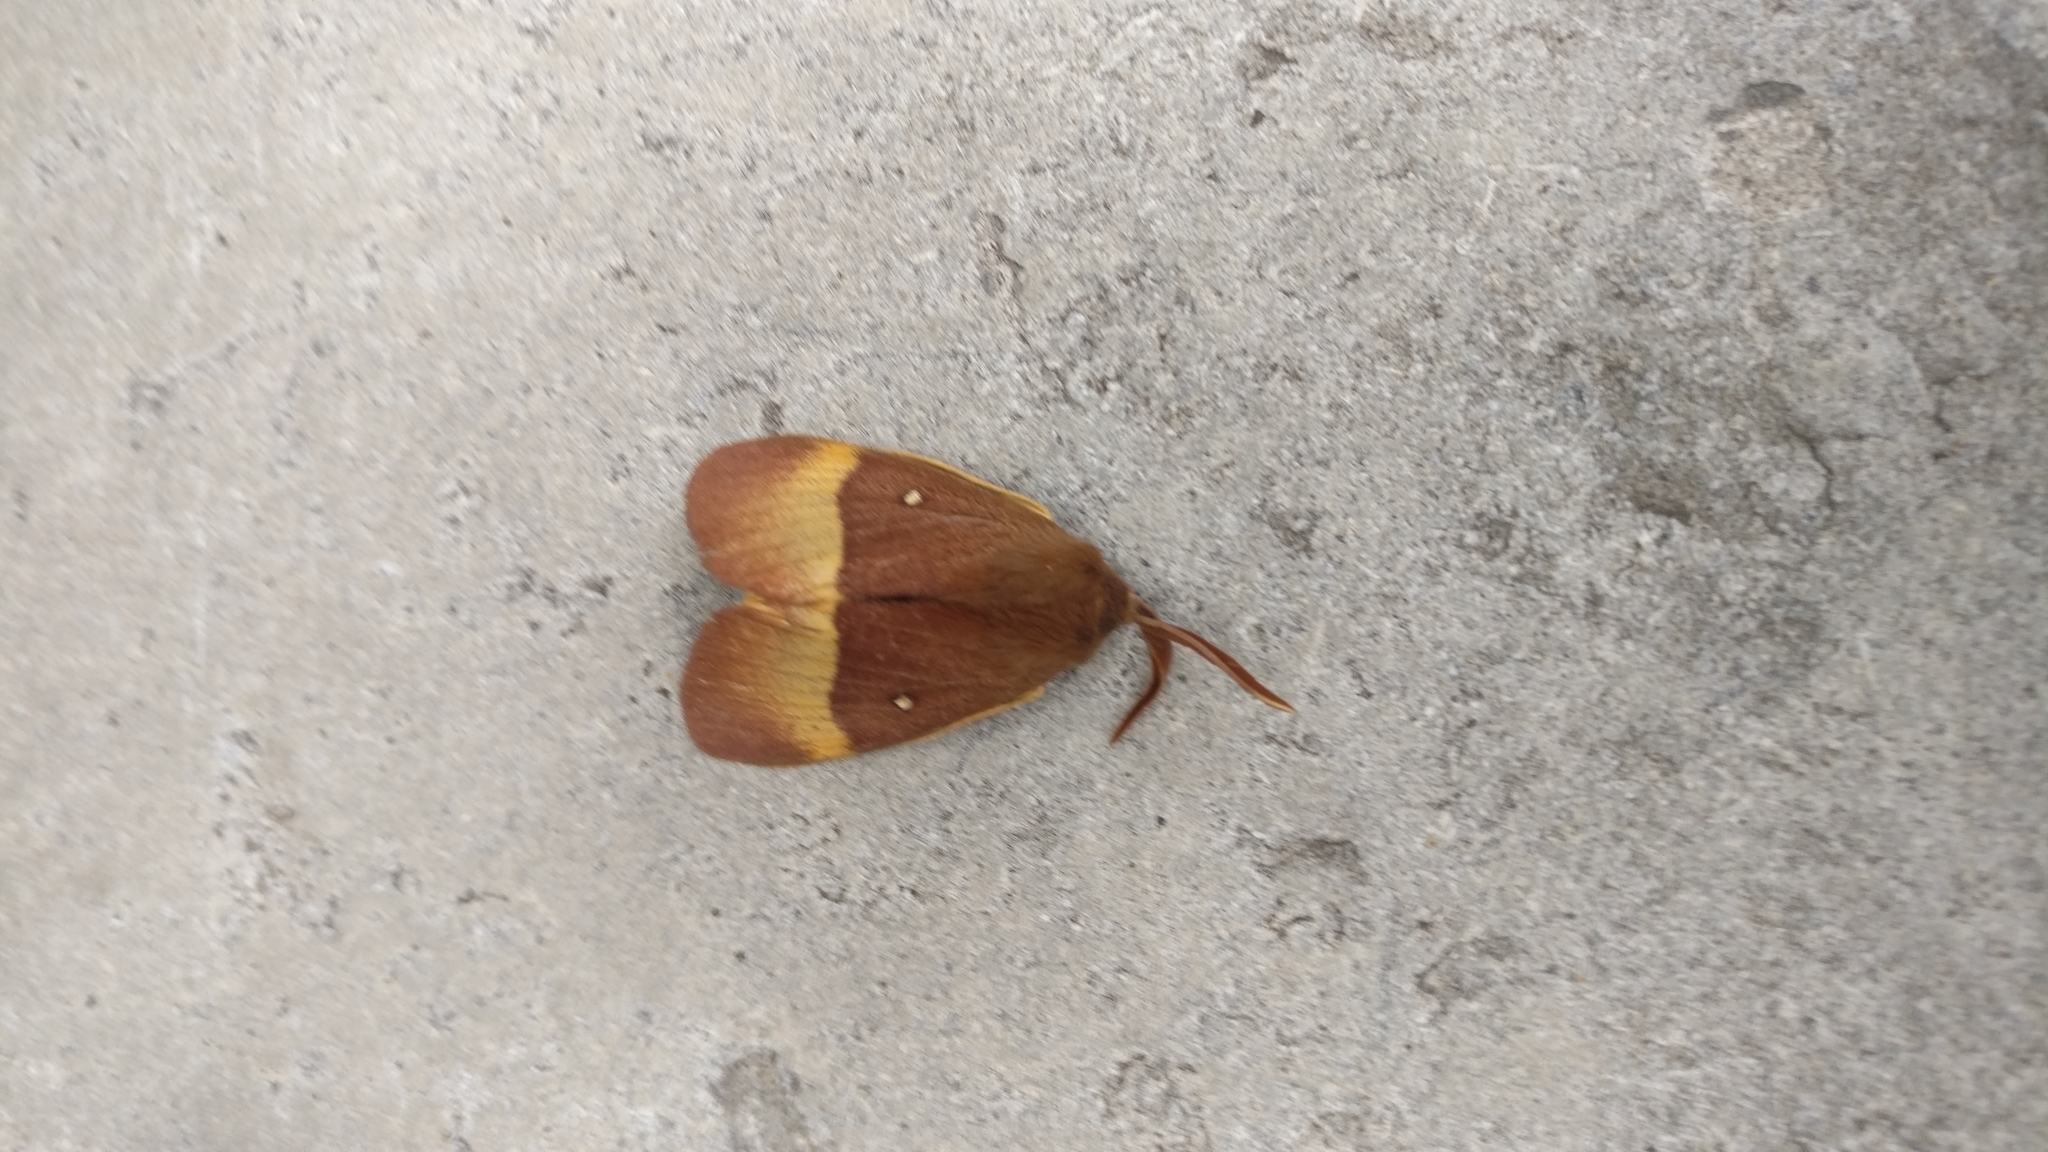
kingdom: Animalia
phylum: Arthropoda
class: Insecta
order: Lepidoptera
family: Lasiocampidae
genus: Lasiocampa
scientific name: Lasiocampa quercus
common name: Oak eggar
